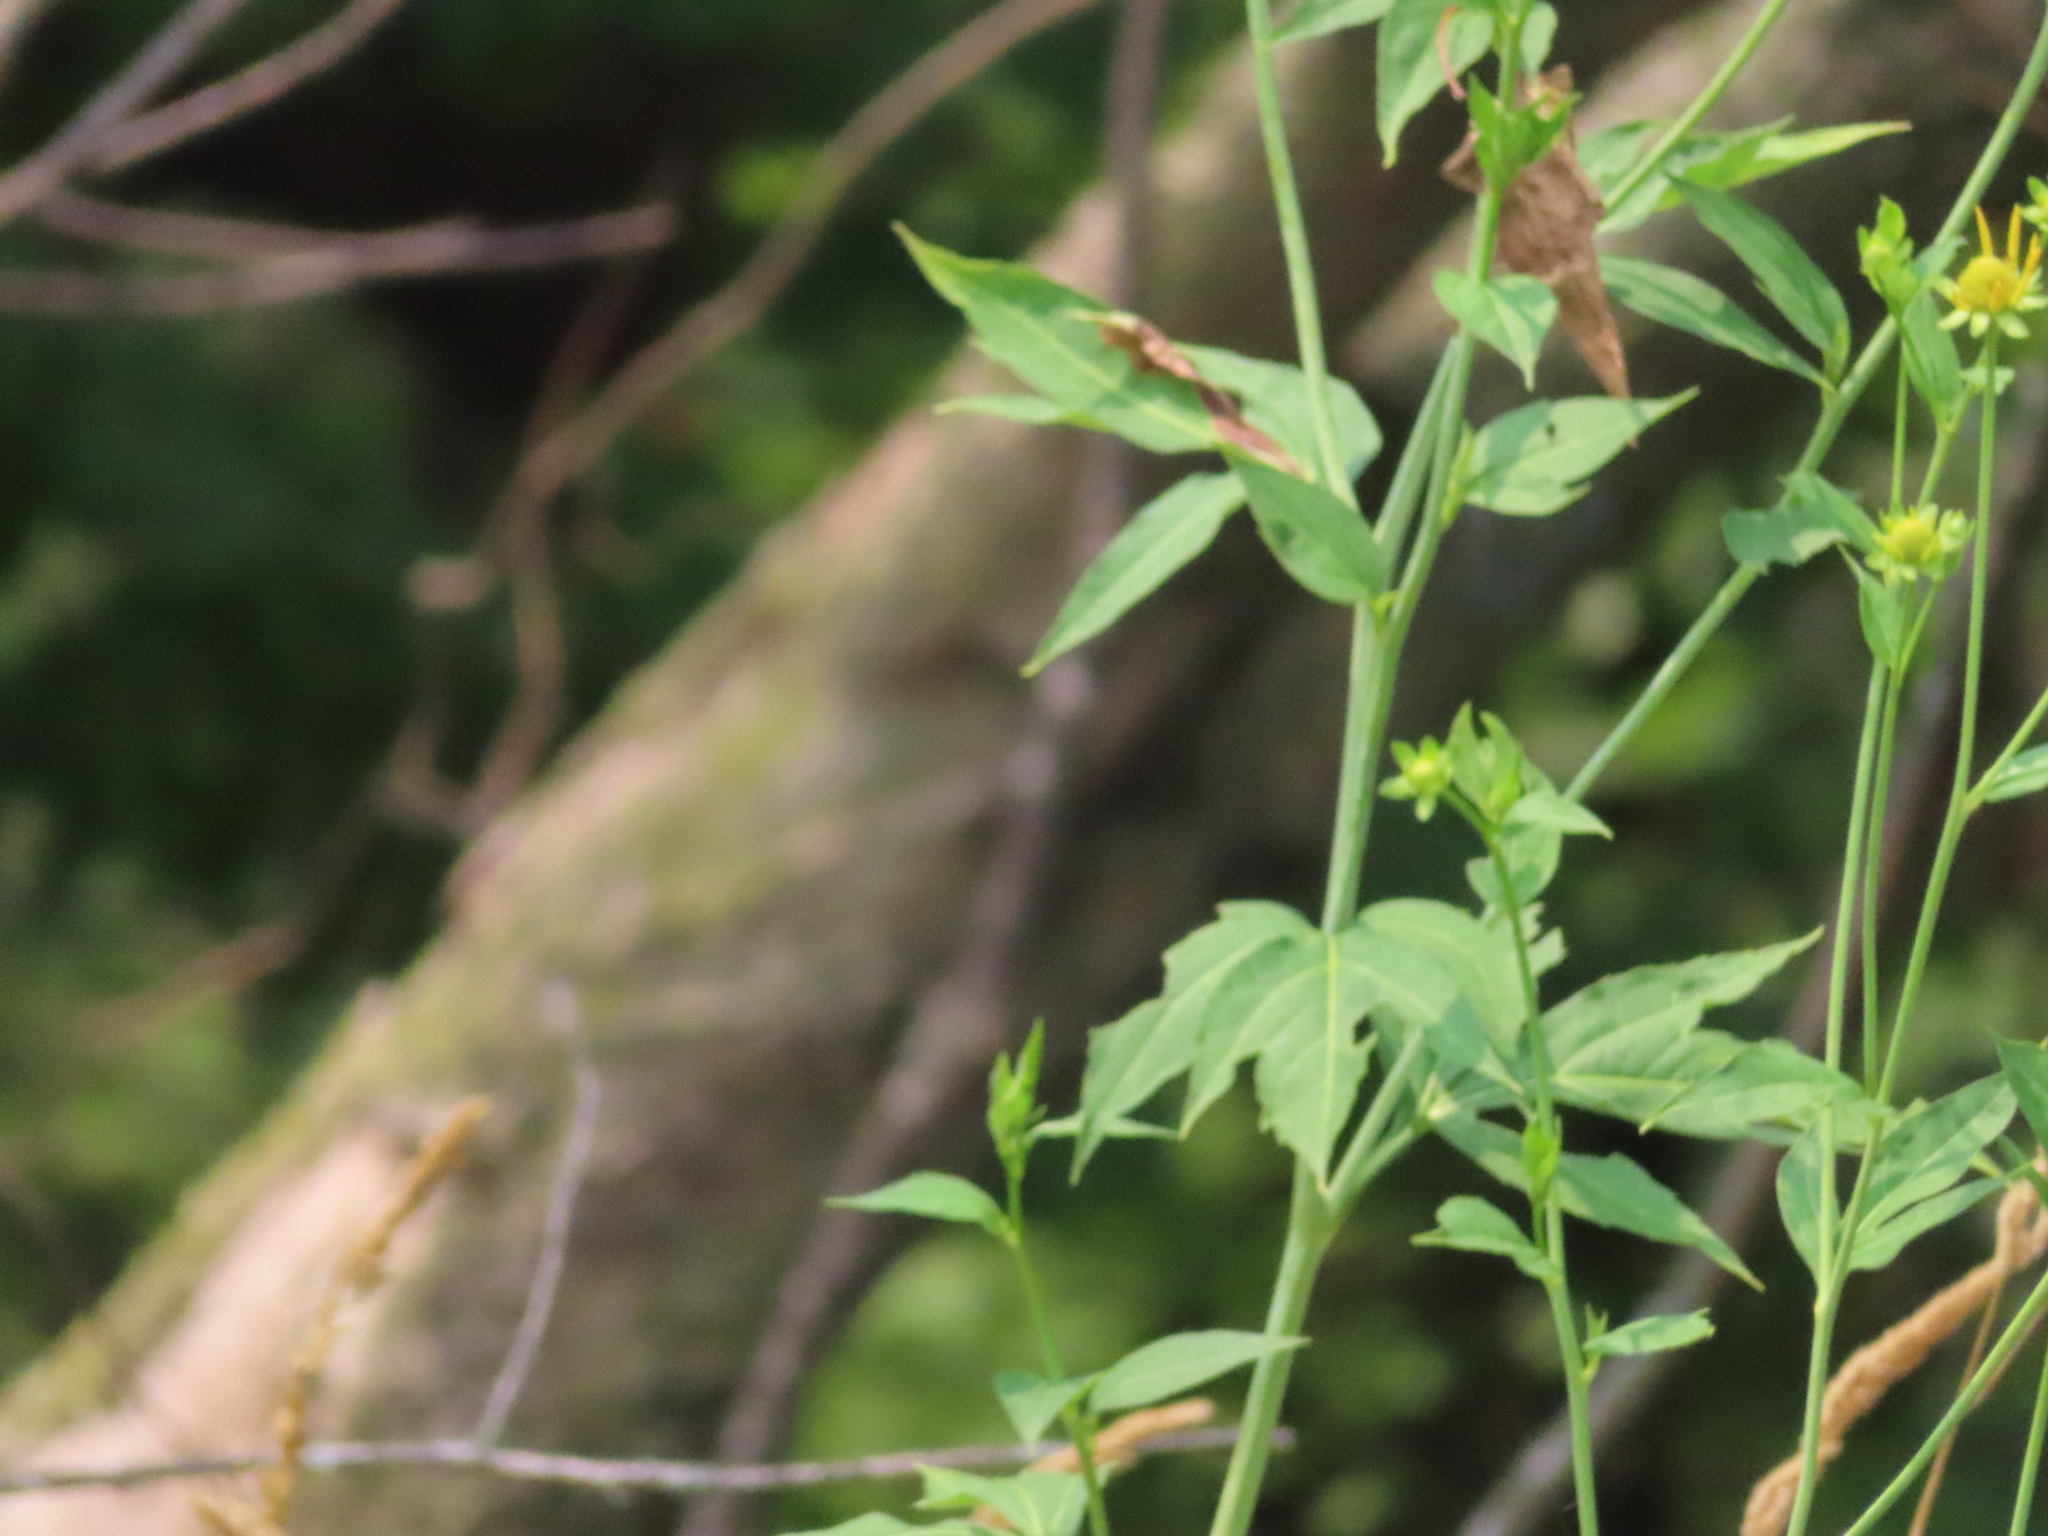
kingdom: Plantae
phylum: Tracheophyta
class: Magnoliopsida
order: Asterales
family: Asteraceae
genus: Rudbeckia
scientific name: Rudbeckia laciniata
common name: Coneflower
